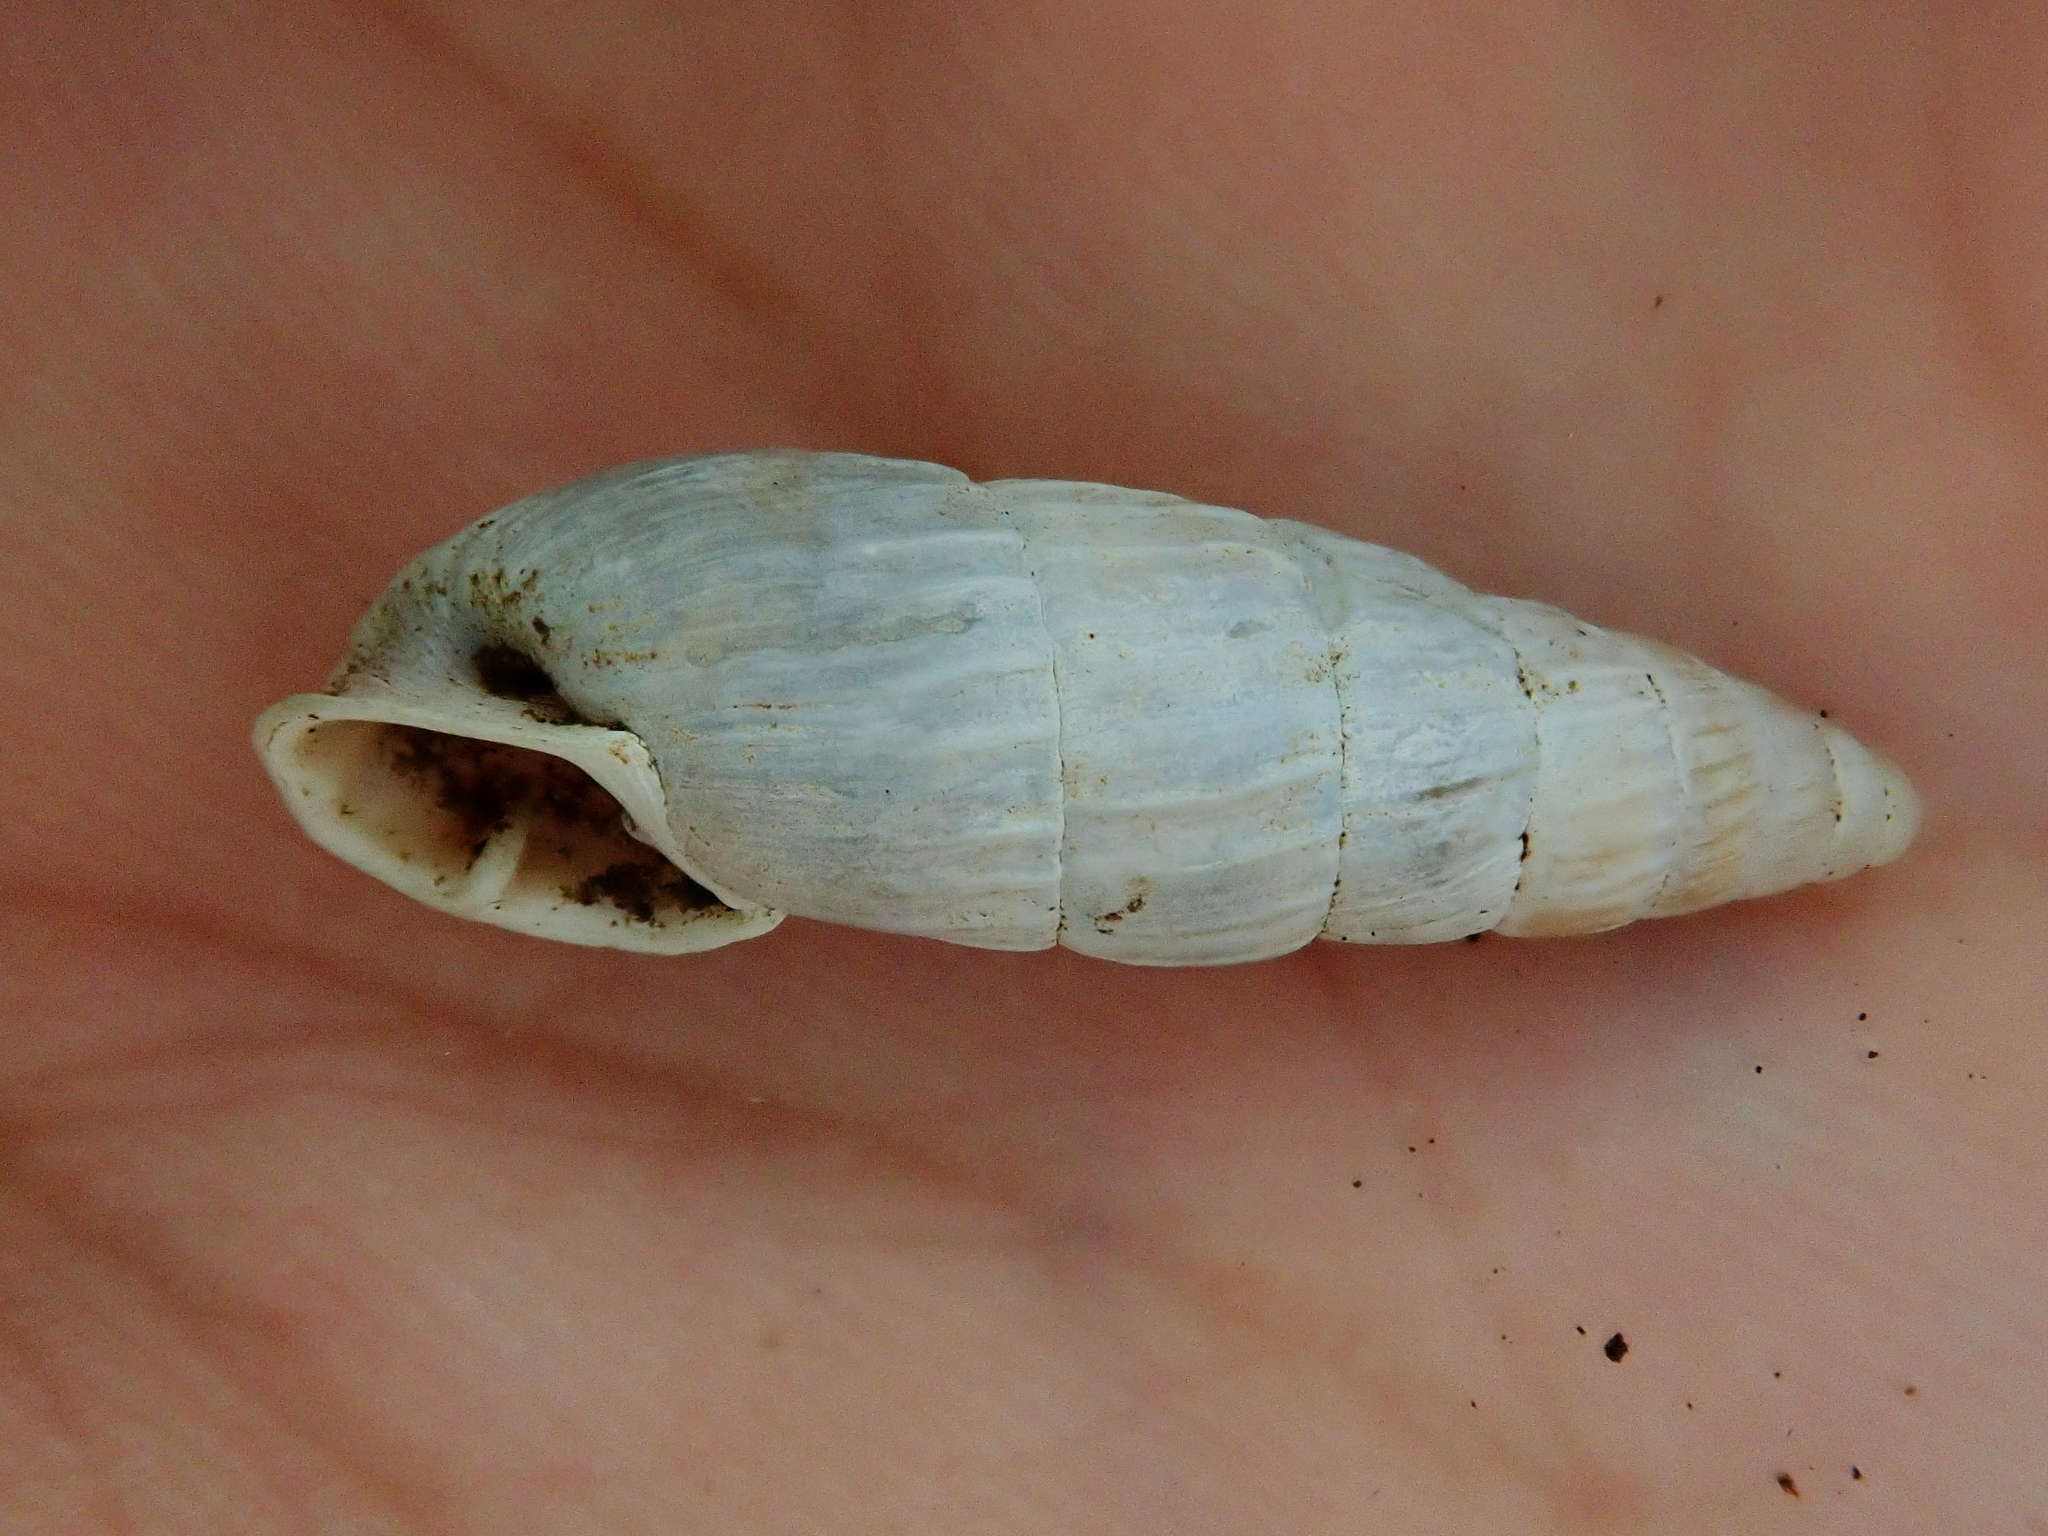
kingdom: Animalia
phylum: Mollusca
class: Gastropoda
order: Stylommatophora
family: Odontostomidae
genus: Cyclodontina
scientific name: Cyclodontina cylindrica
